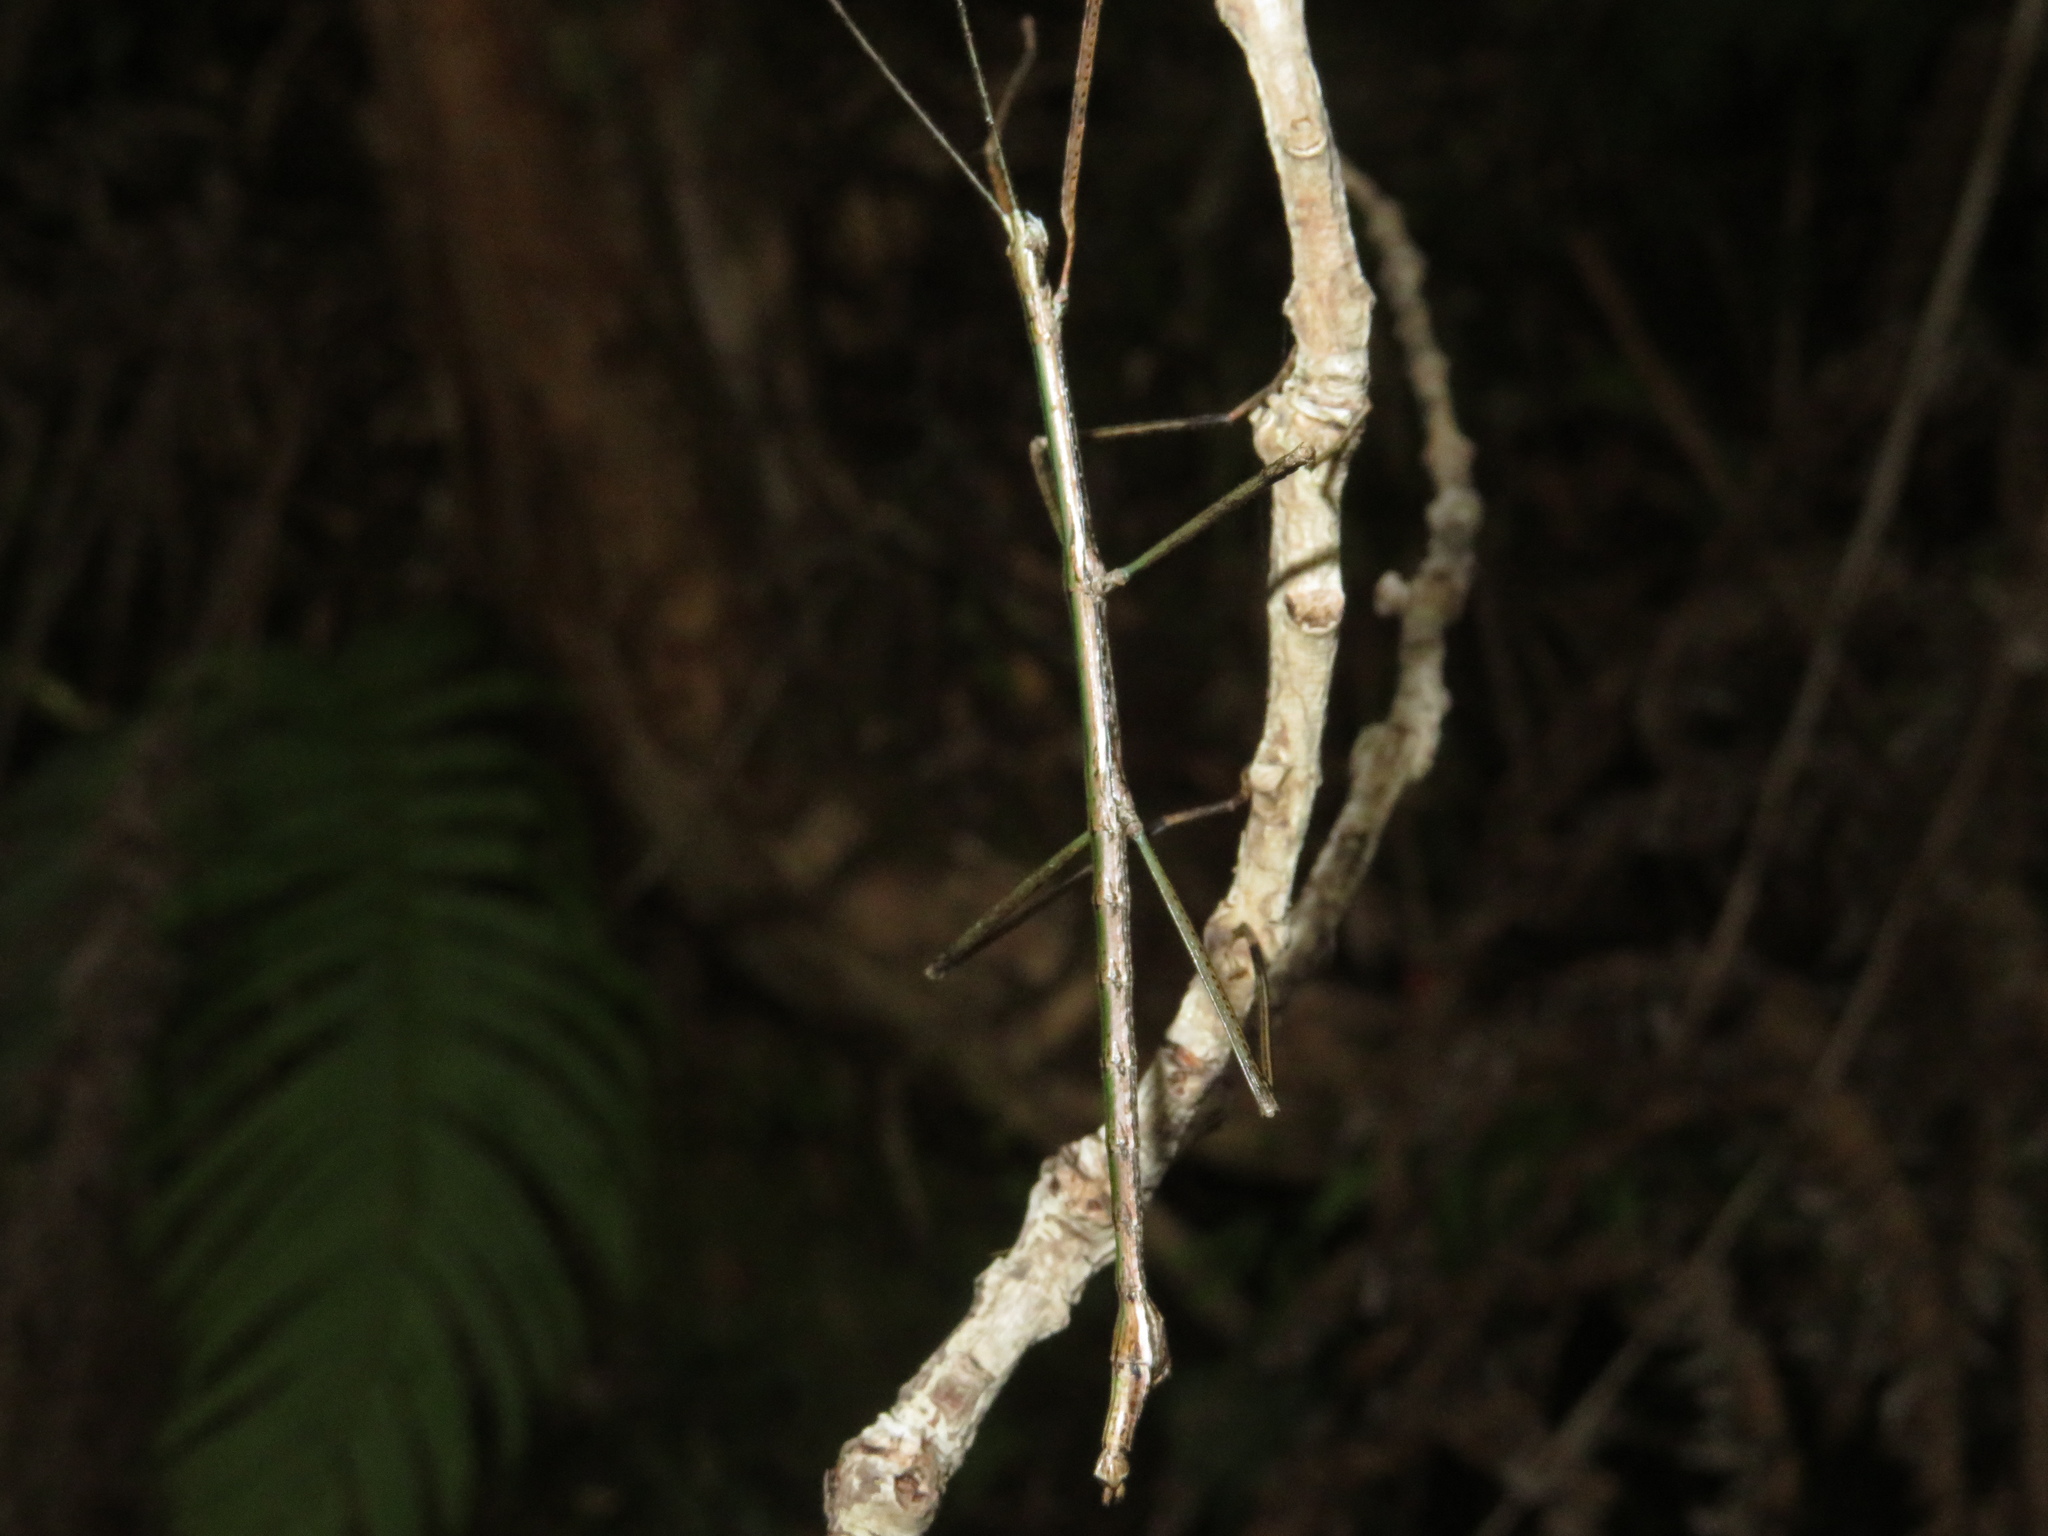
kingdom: Animalia
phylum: Arthropoda
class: Insecta
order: Phasmida
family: Phasmatidae
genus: Clitarchus
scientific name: Clitarchus hookeri
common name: Smooth stick insect
